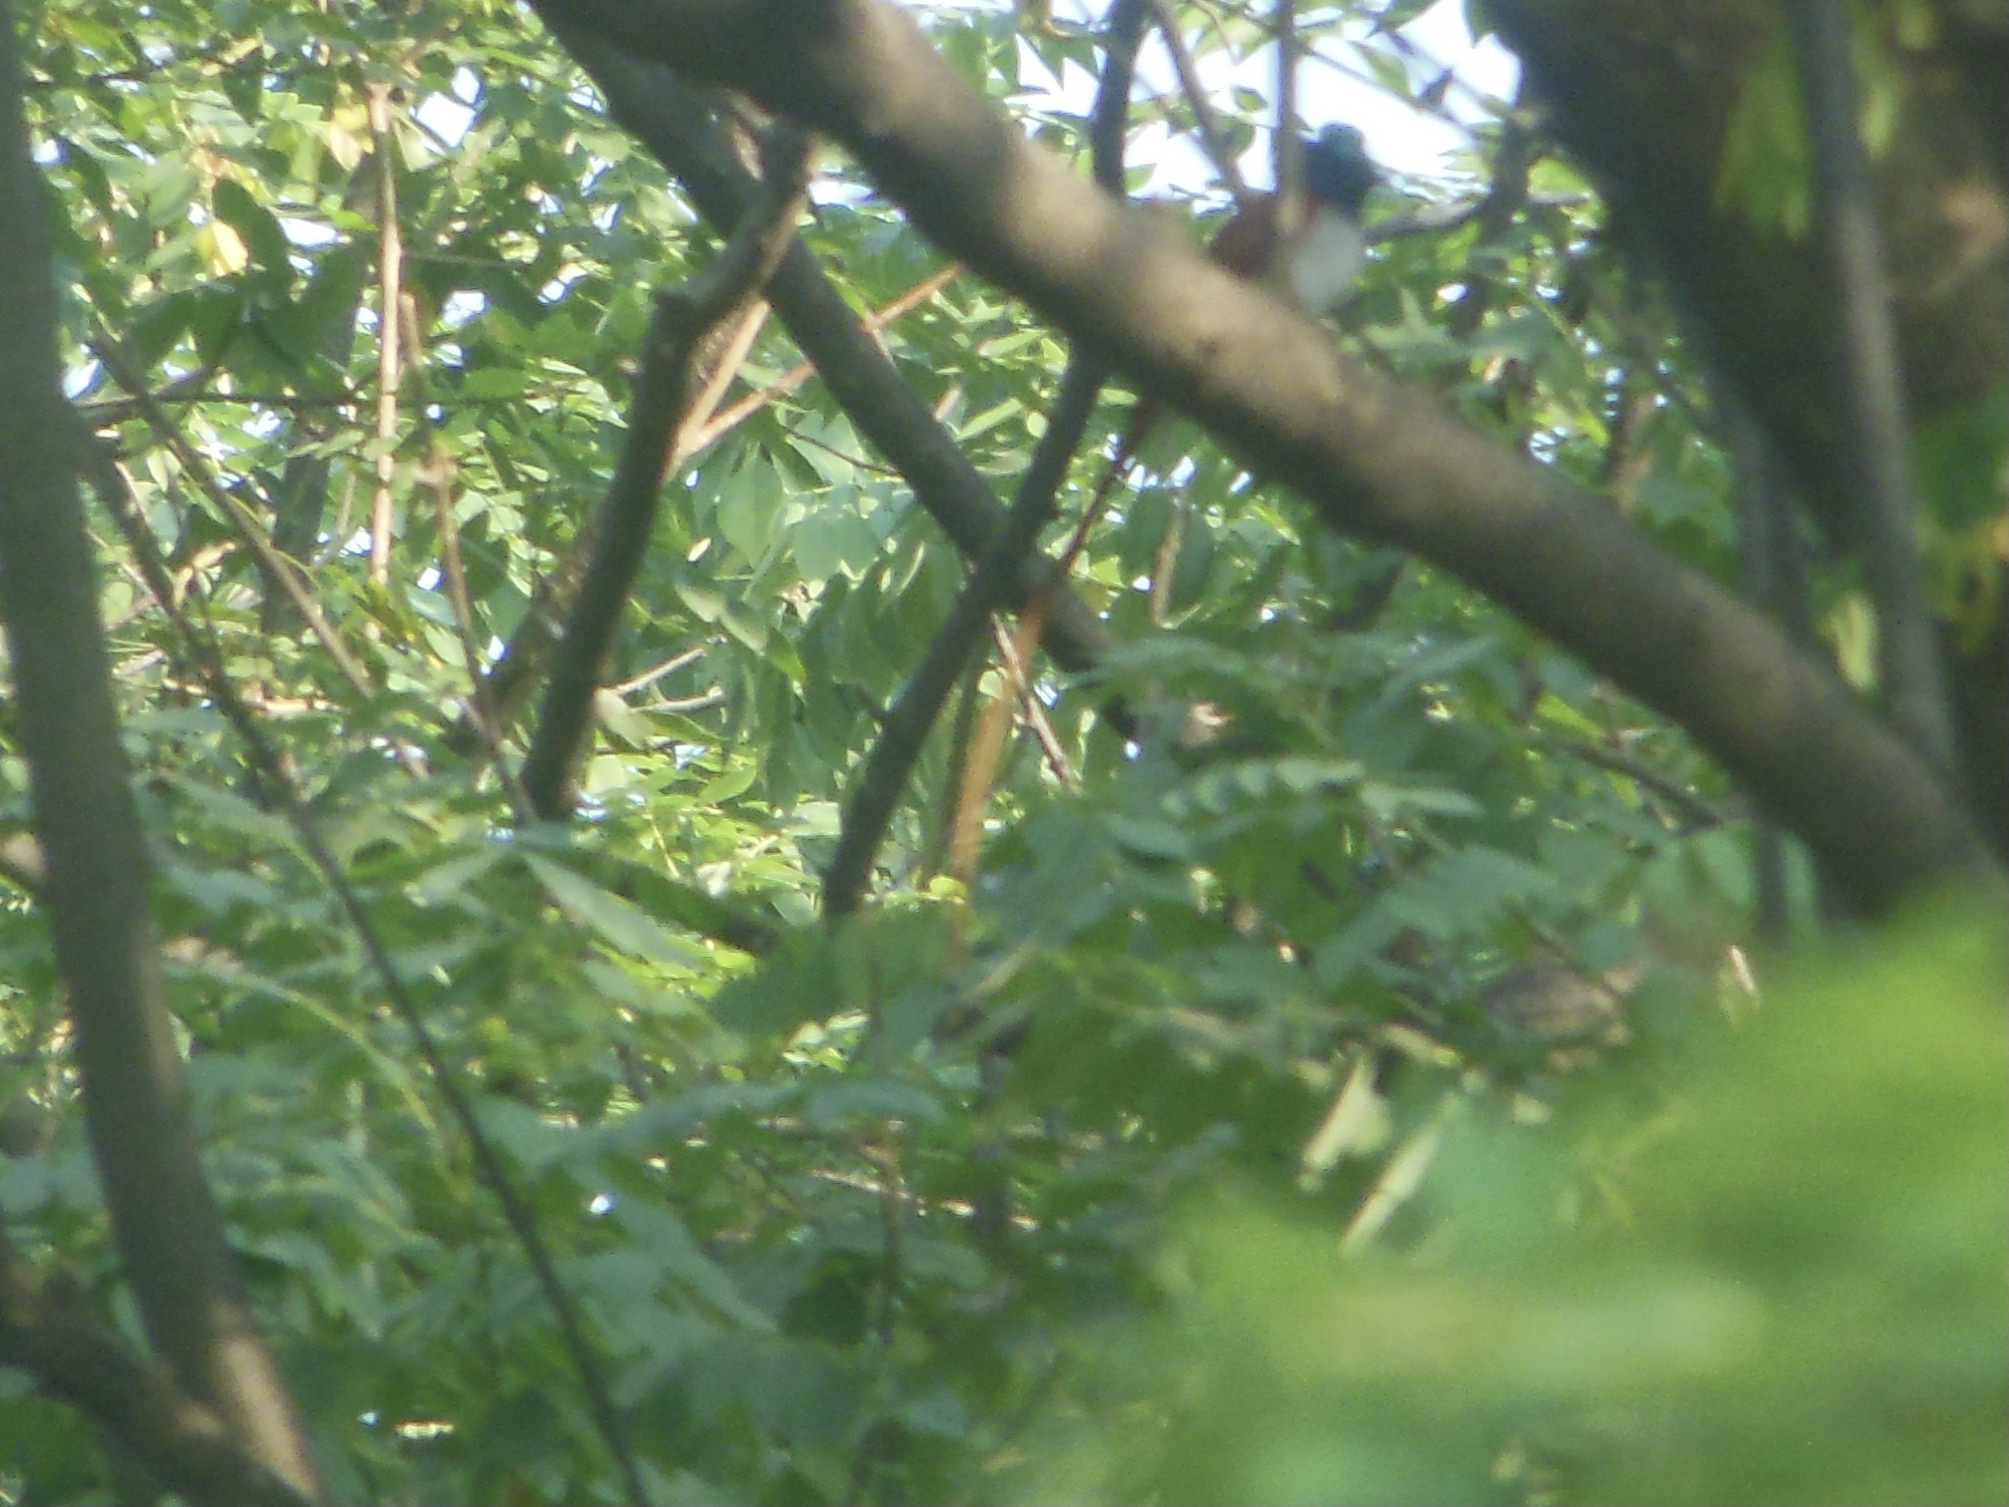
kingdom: Animalia
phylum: Chordata
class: Aves
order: Passeriformes
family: Monarchidae
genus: Terpsiphone
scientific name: Terpsiphone paradisi
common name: Indian paradise flycatcher
